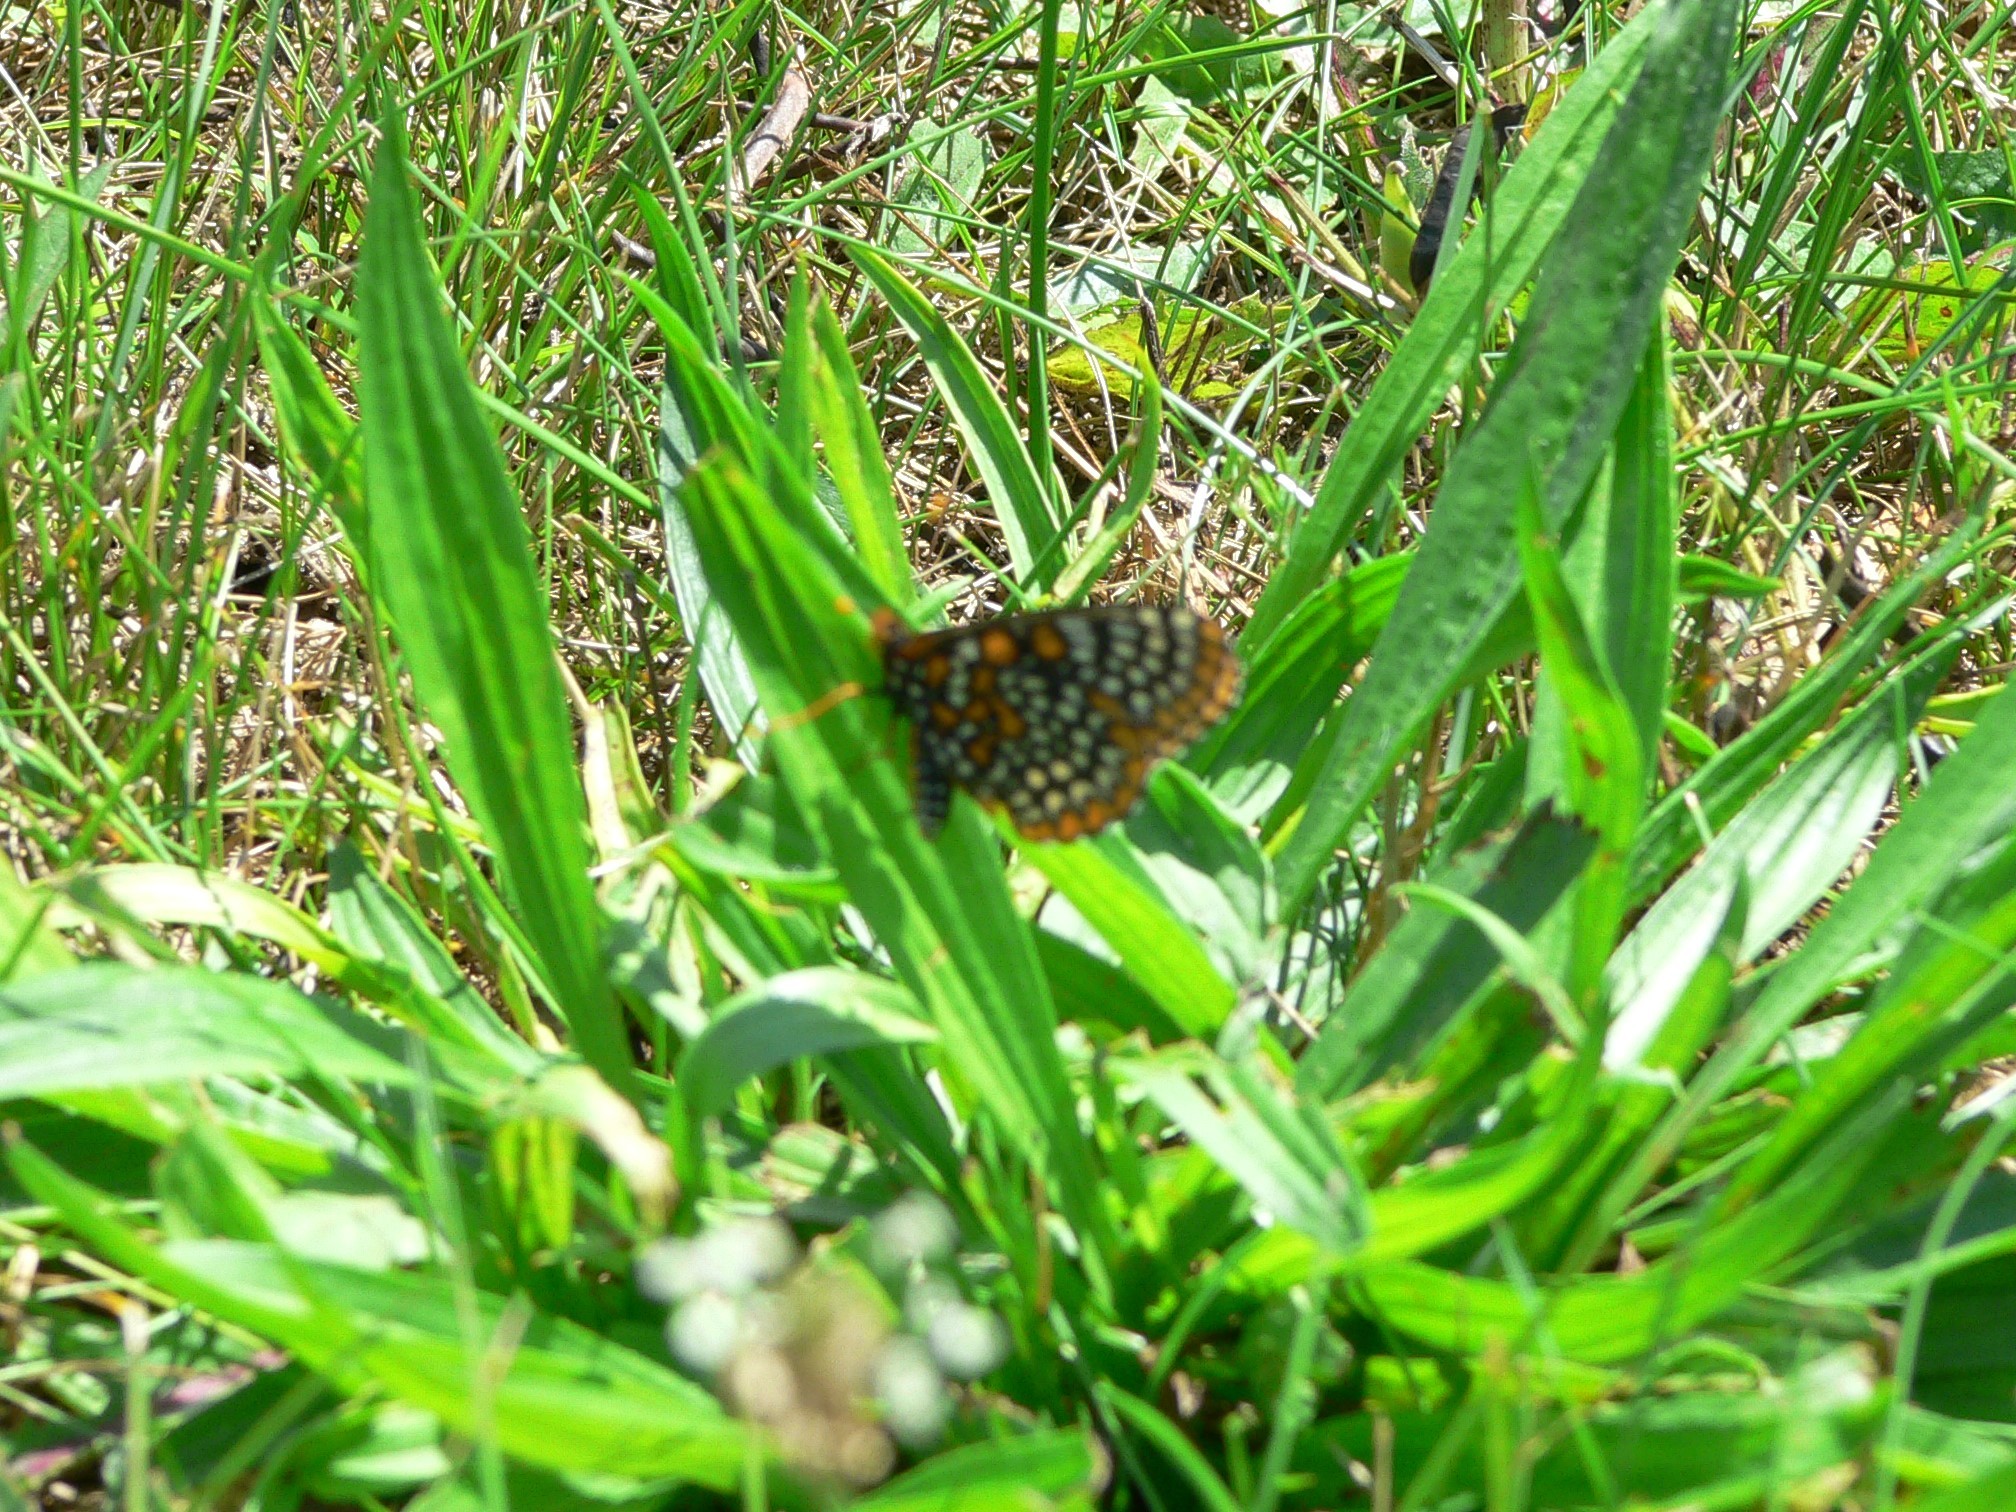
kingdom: Animalia
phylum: Arthropoda
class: Insecta
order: Lepidoptera
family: Nymphalidae
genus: Euphydryas
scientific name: Euphydryas phaeton
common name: Baltimore checkerspot
